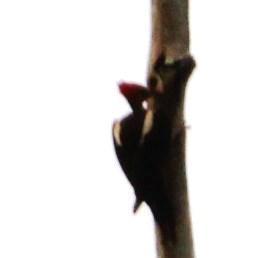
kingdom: Animalia
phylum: Chordata
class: Aves
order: Piciformes
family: Picidae
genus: Dryocopus
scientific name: Dryocopus lineatus
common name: Lineated woodpecker
